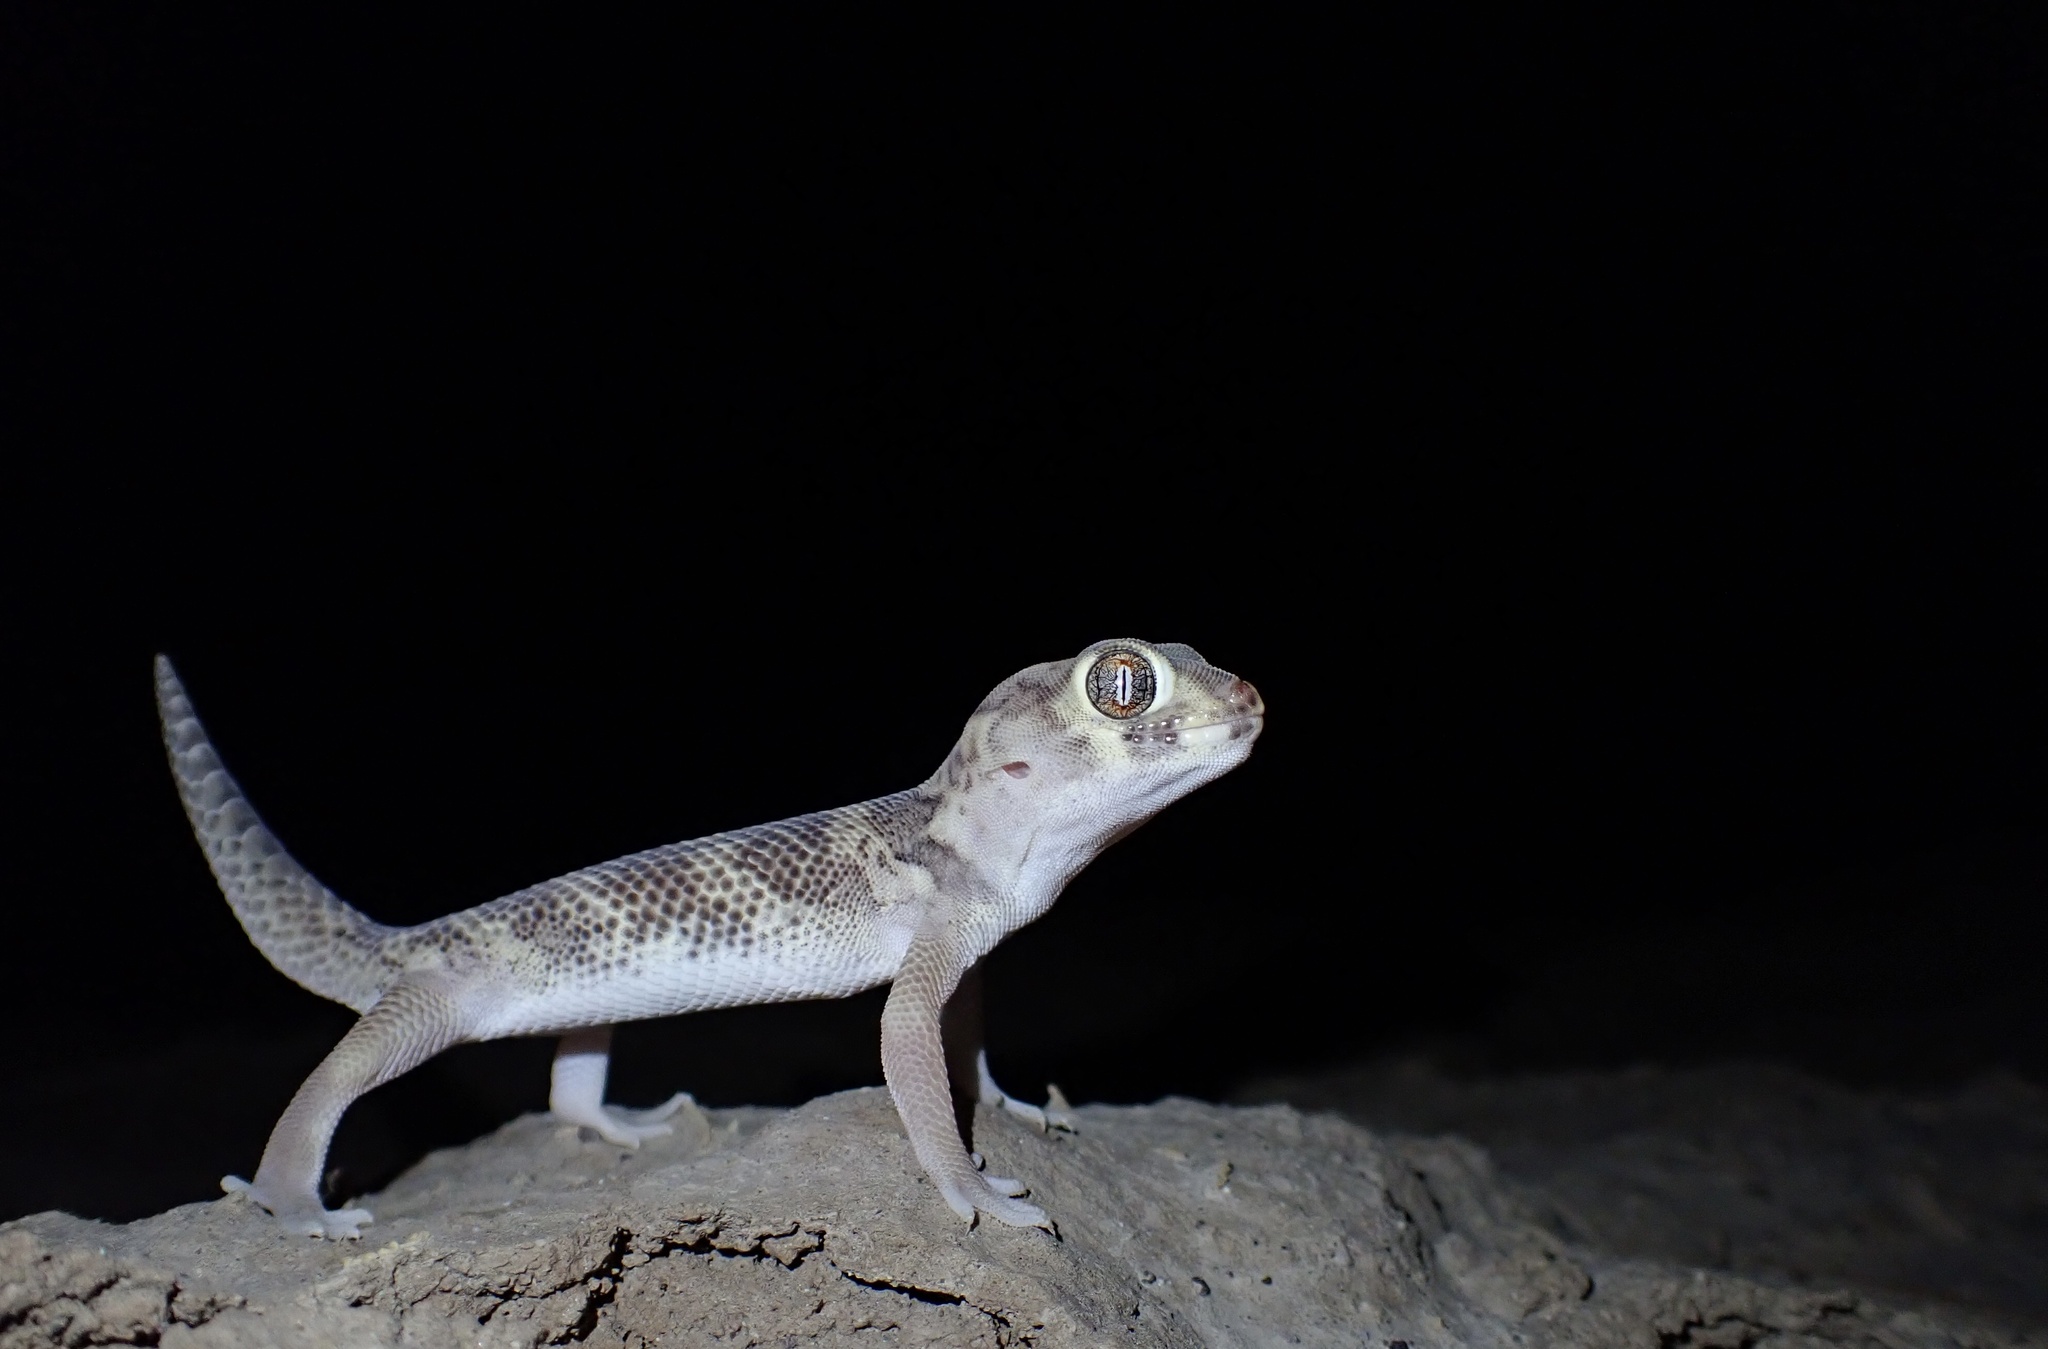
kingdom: Animalia
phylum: Chordata
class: Squamata
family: Sphaerodactylidae
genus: Teratoscincus
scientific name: Teratoscincus bedriagai
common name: Bedriaga's plate-tailed gecko
